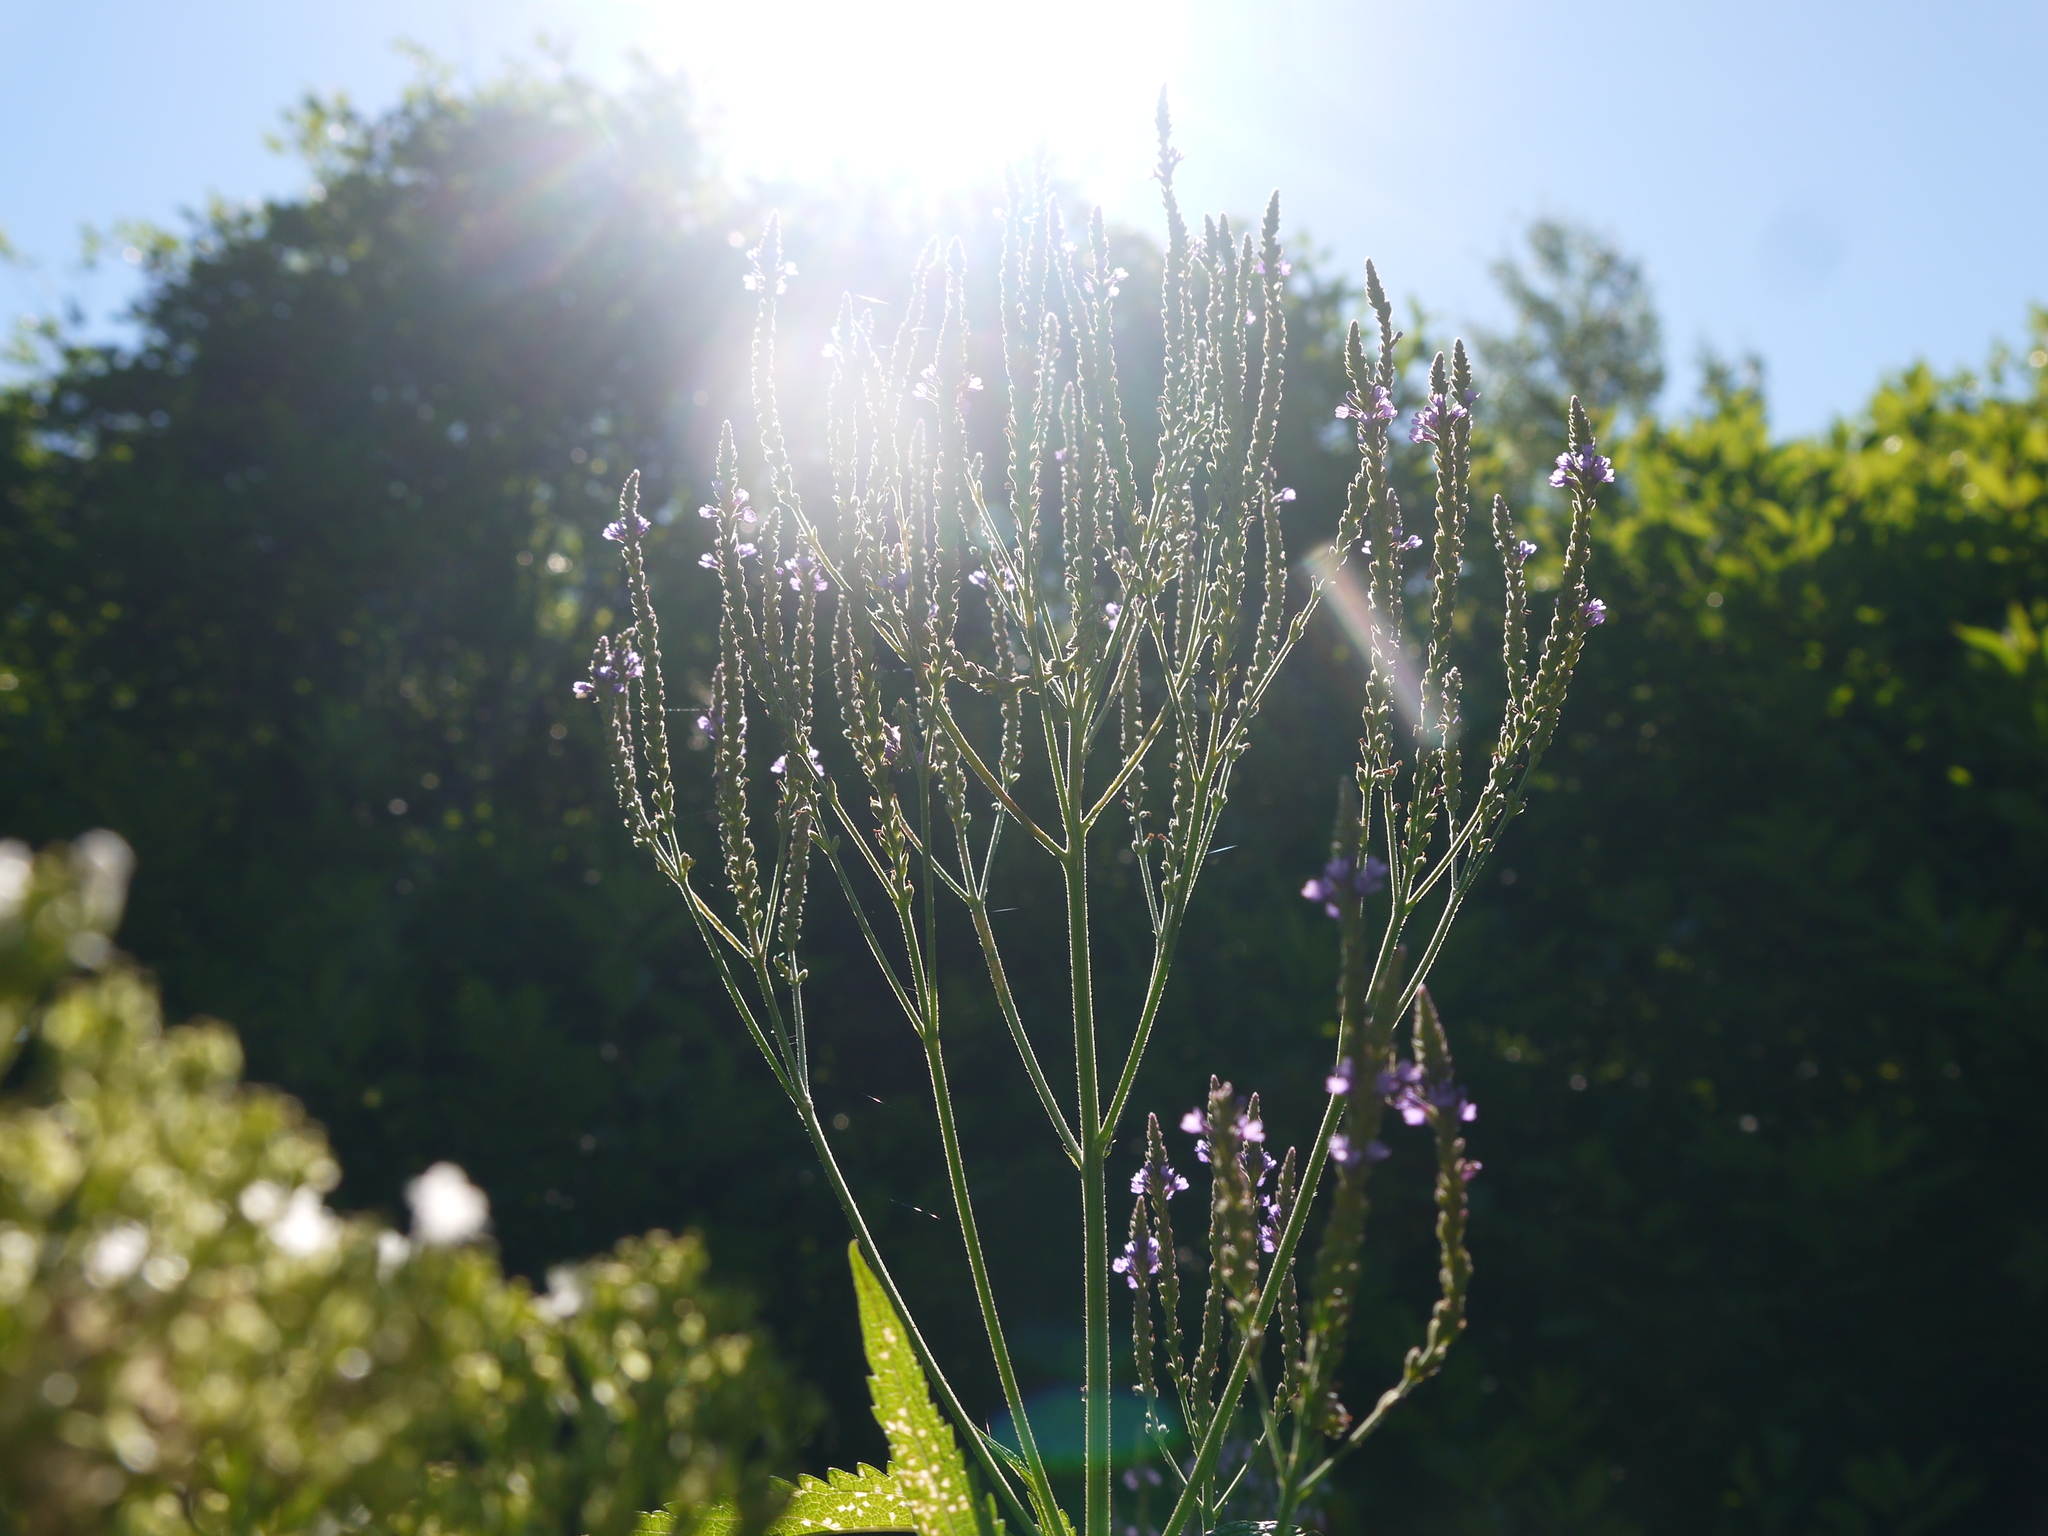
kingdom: Plantae
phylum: Tracheophyta
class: Magnoliopsida
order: Lamiales
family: Verbenaceae
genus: Verbena
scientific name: Verbena hastata
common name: American blue vervain
